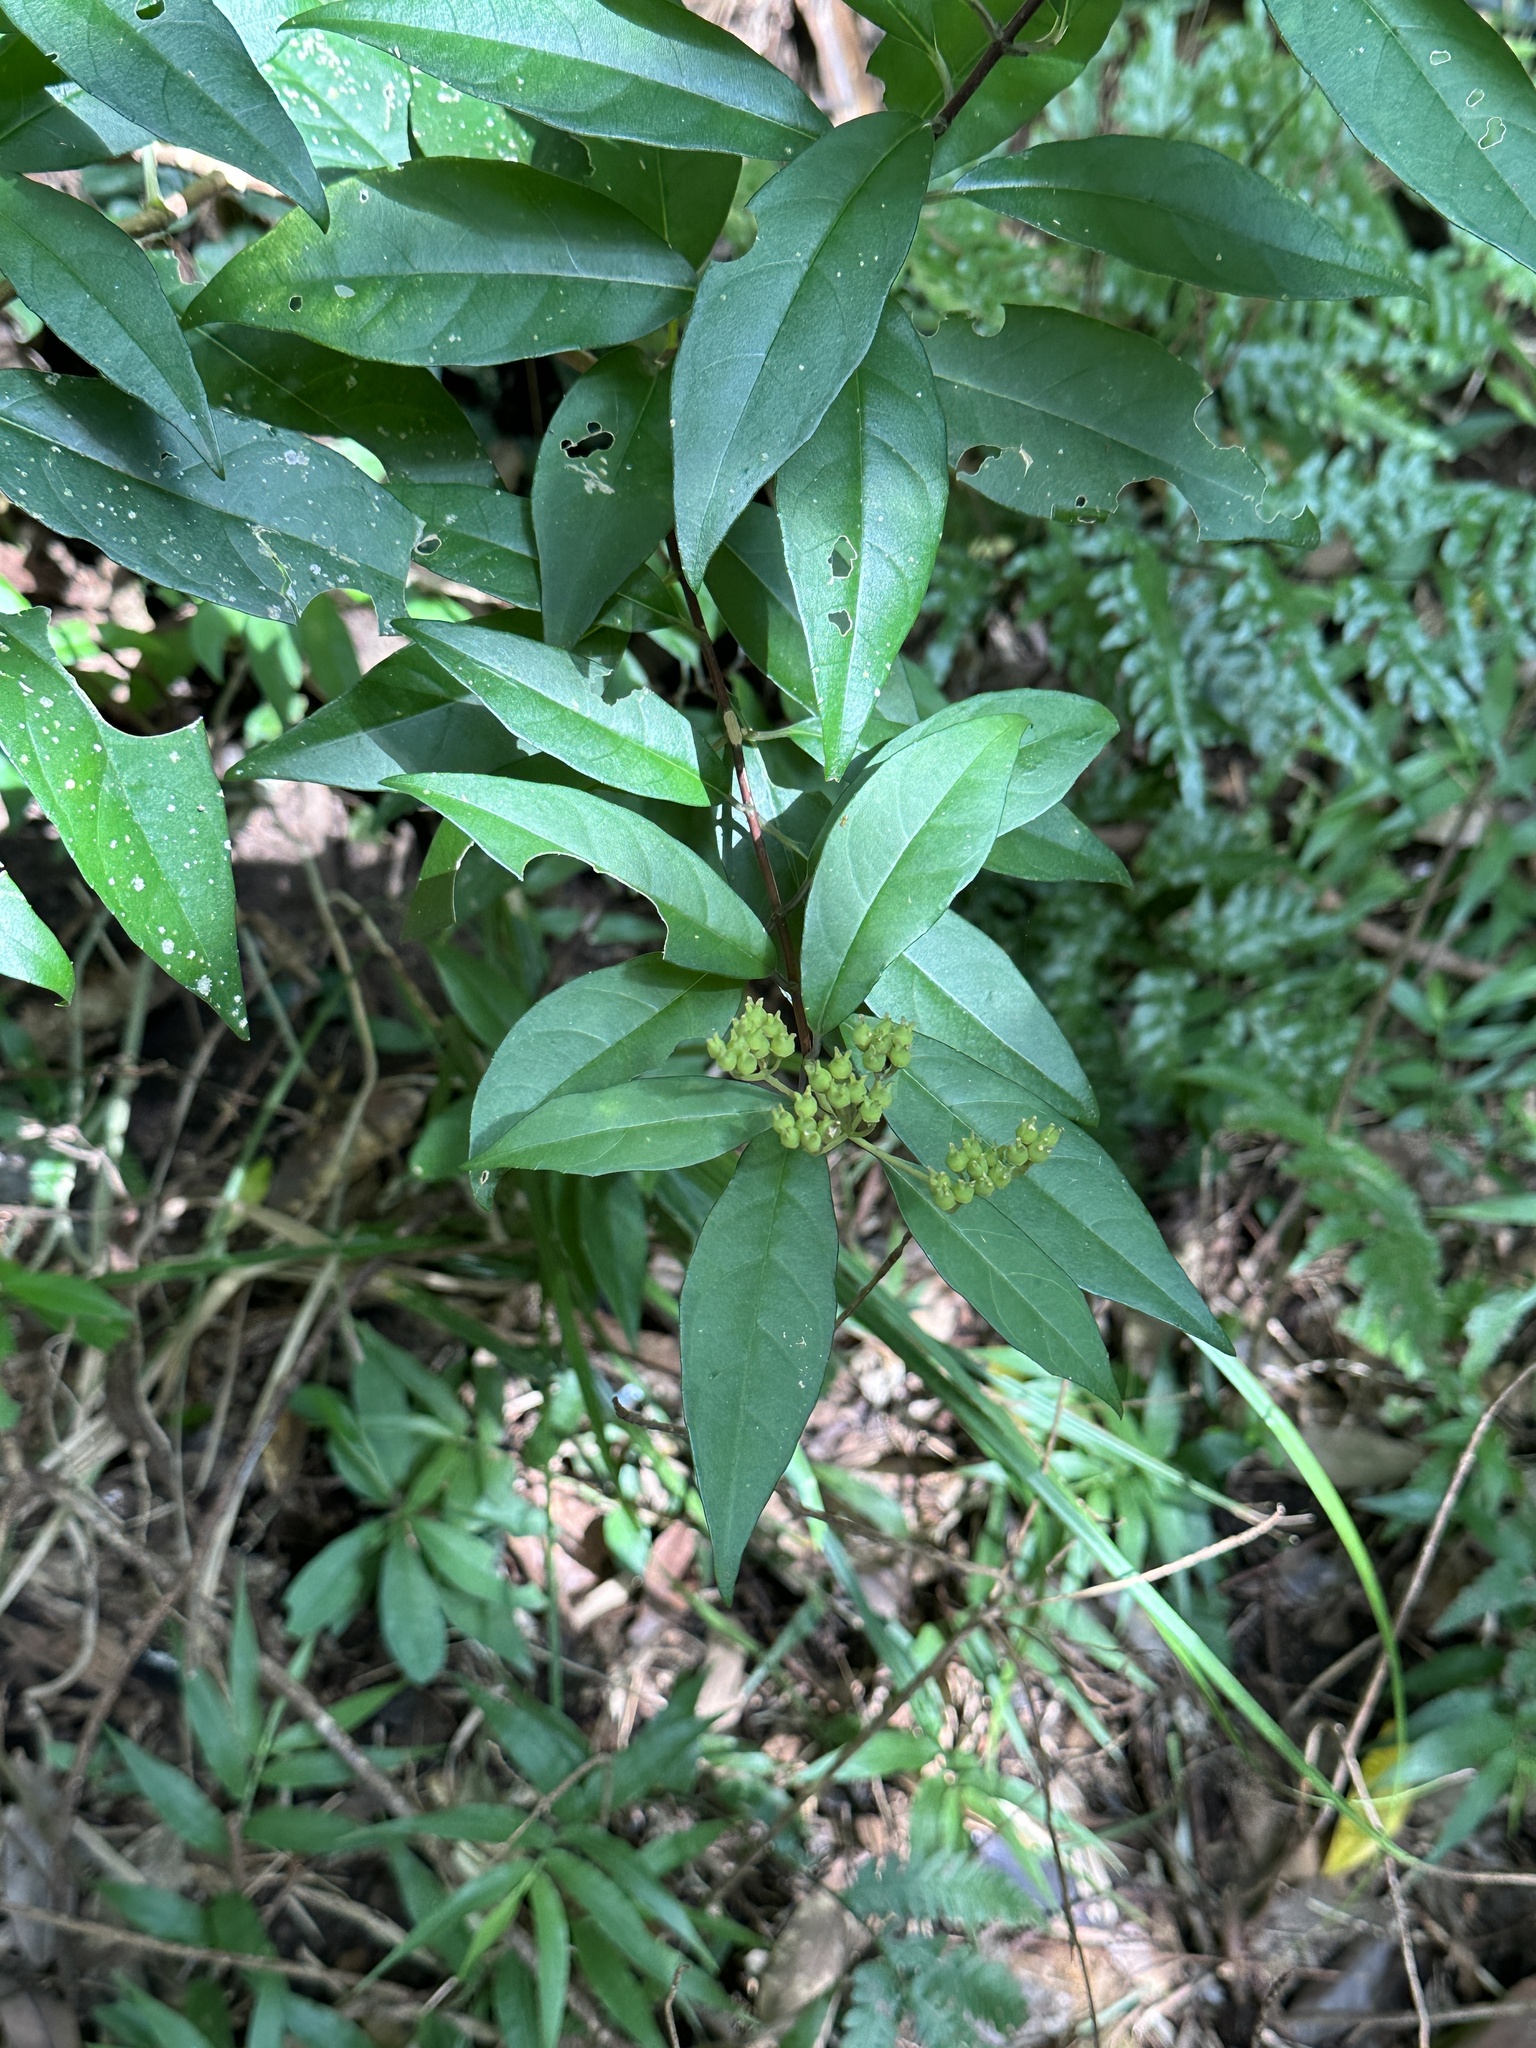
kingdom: Plantae
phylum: Tracheophyta
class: Magnoliopsida
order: Cornales
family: Hydrangeaceae
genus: Hydrangea
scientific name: Hydrangea chinensis
